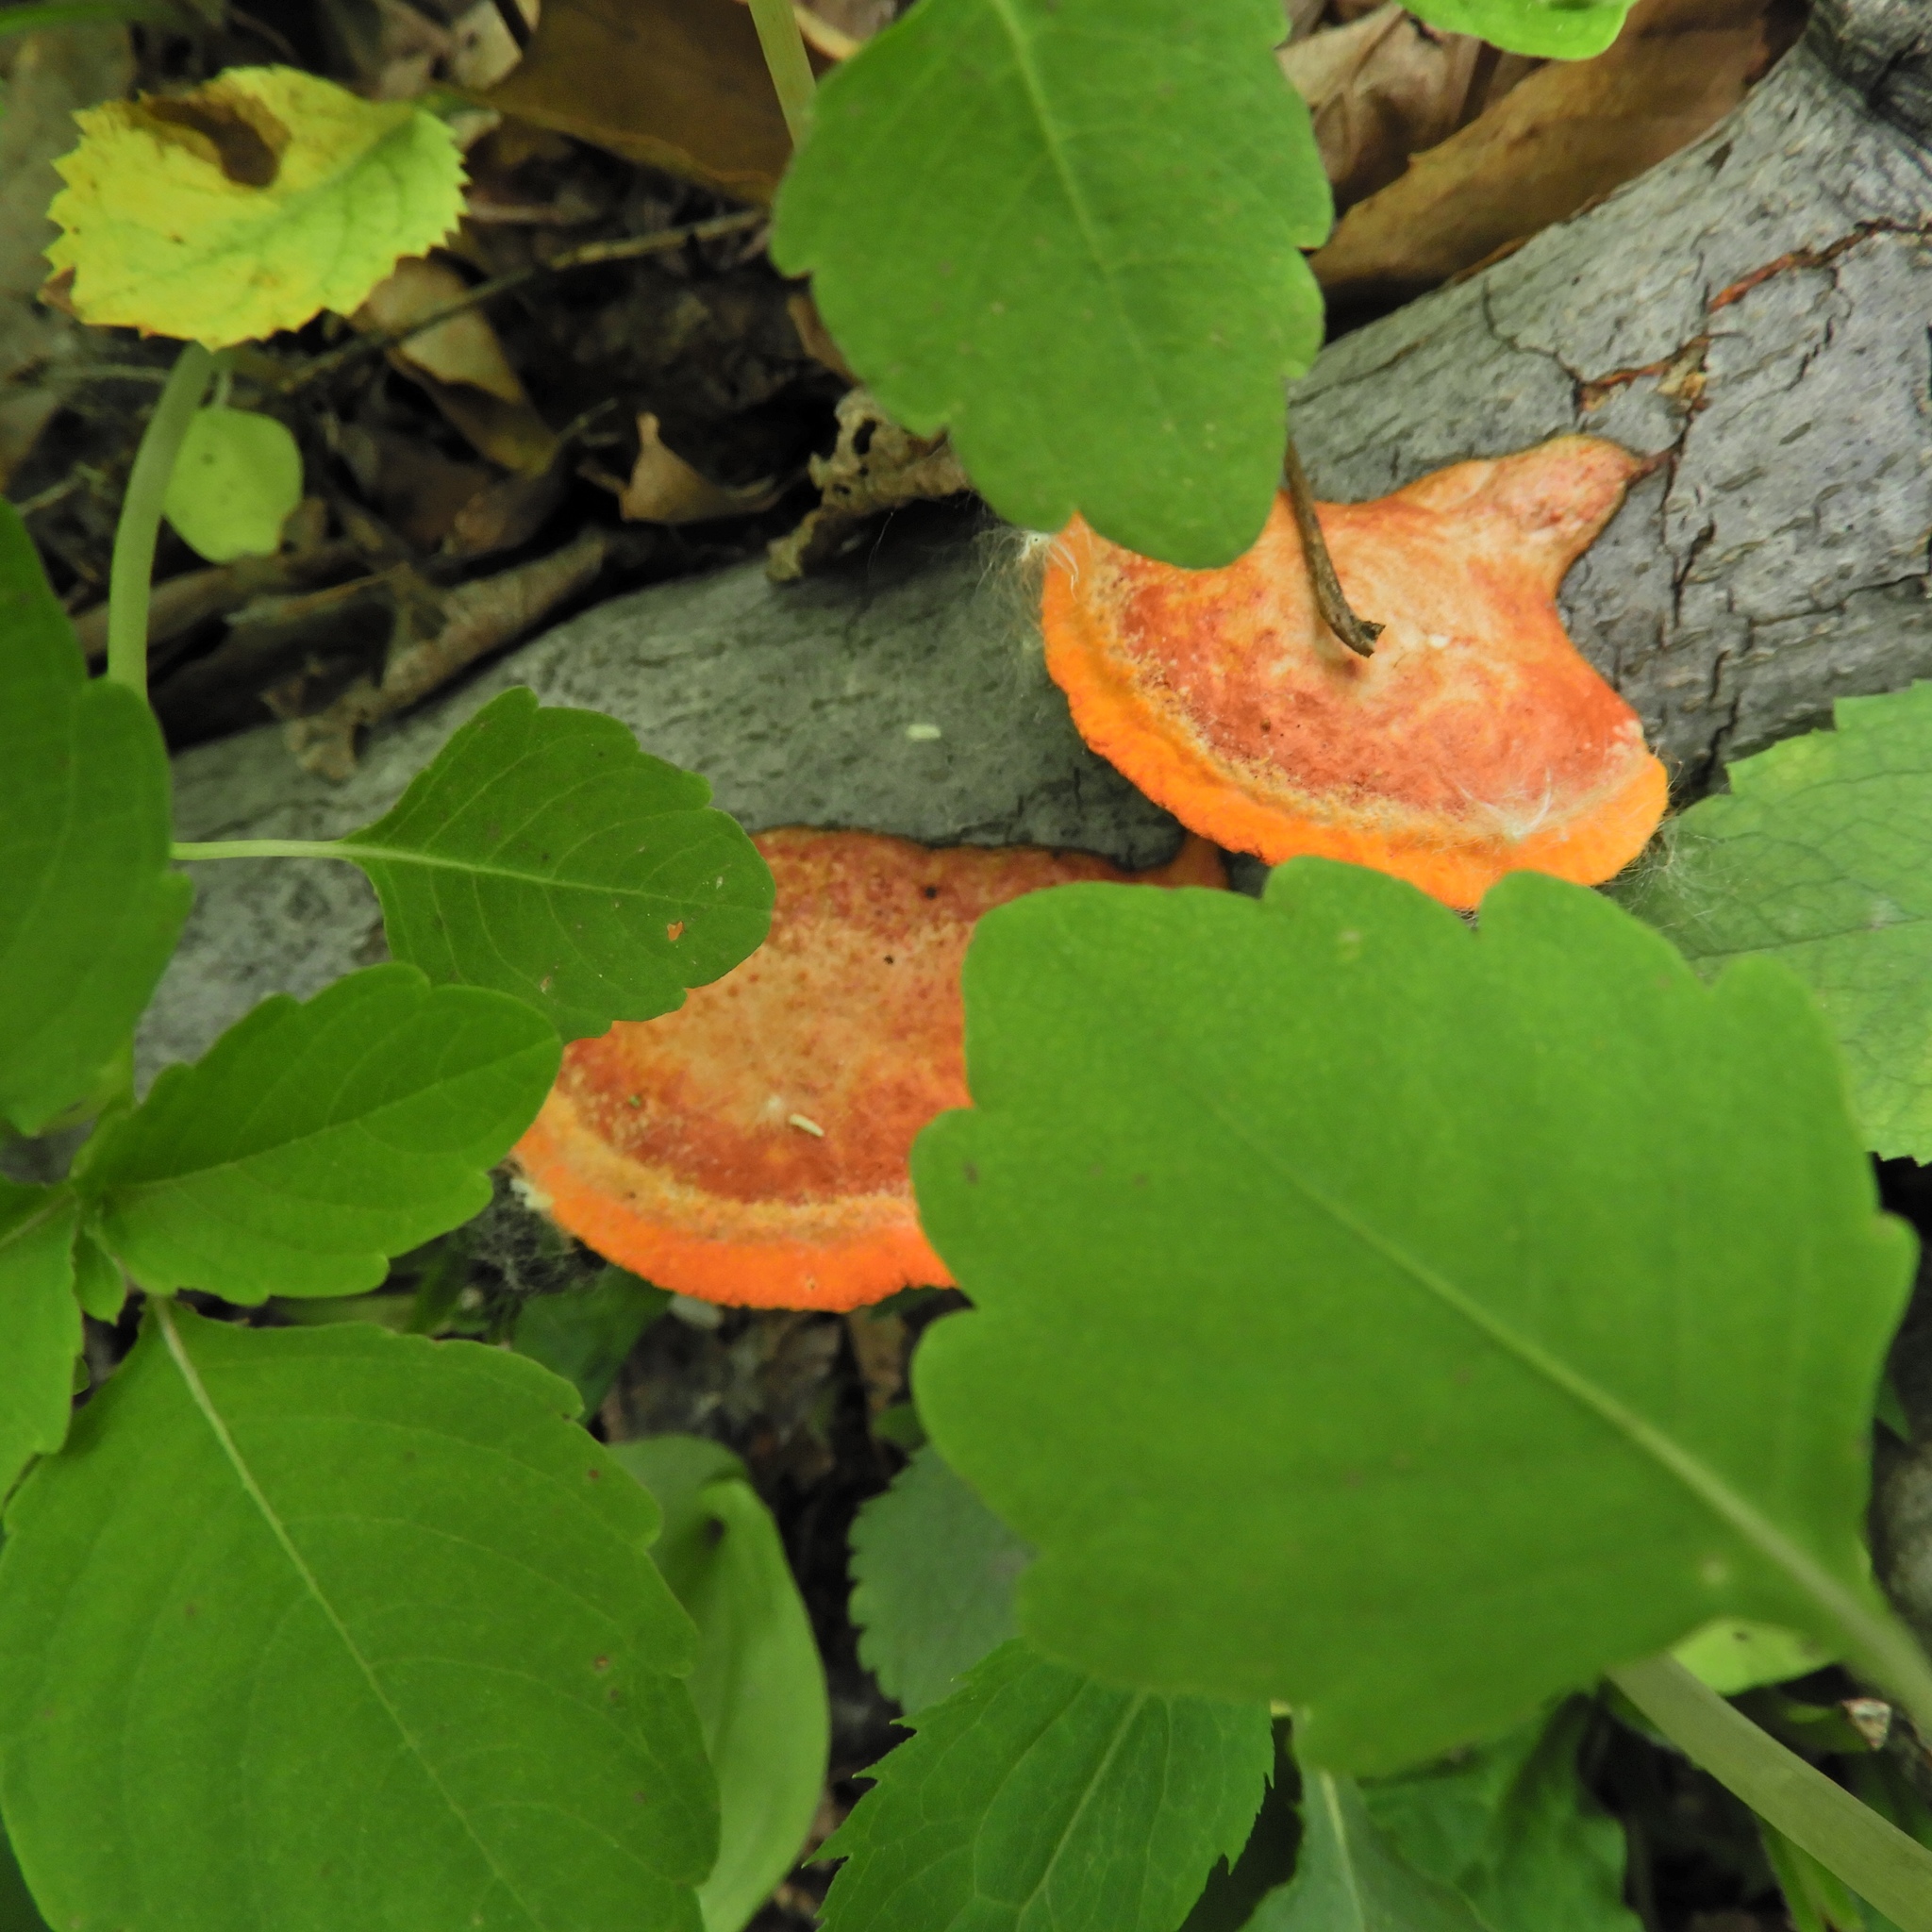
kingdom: Fungi
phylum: Basidiomycota
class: Agaricomycetes
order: Polyporales
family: Polyporaceae
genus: Trametes
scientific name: Trametes cinnabarina
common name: Northern cinnabar polypore
